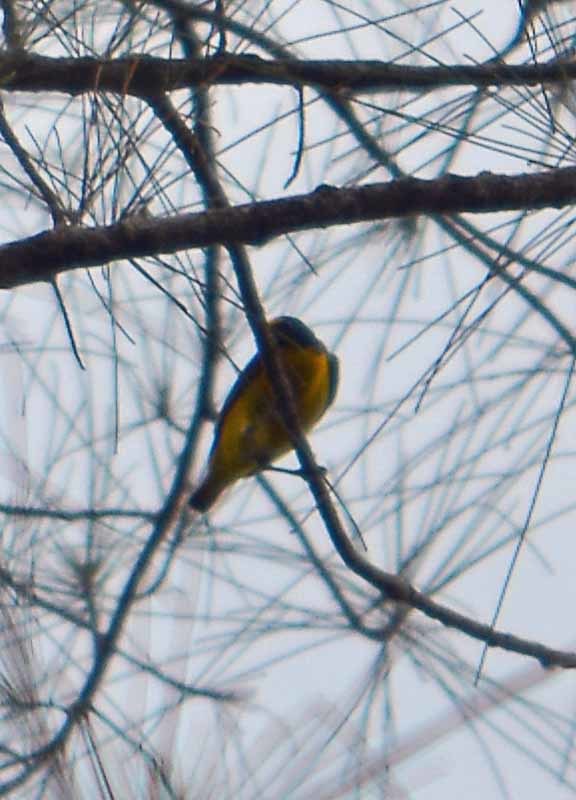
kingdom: Animalia
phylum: Chordata
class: Aves
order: Passeriformes
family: Fringillidae
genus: Euphonia
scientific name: Euphonia hirundinacea
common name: Yellow-throated euphonia
